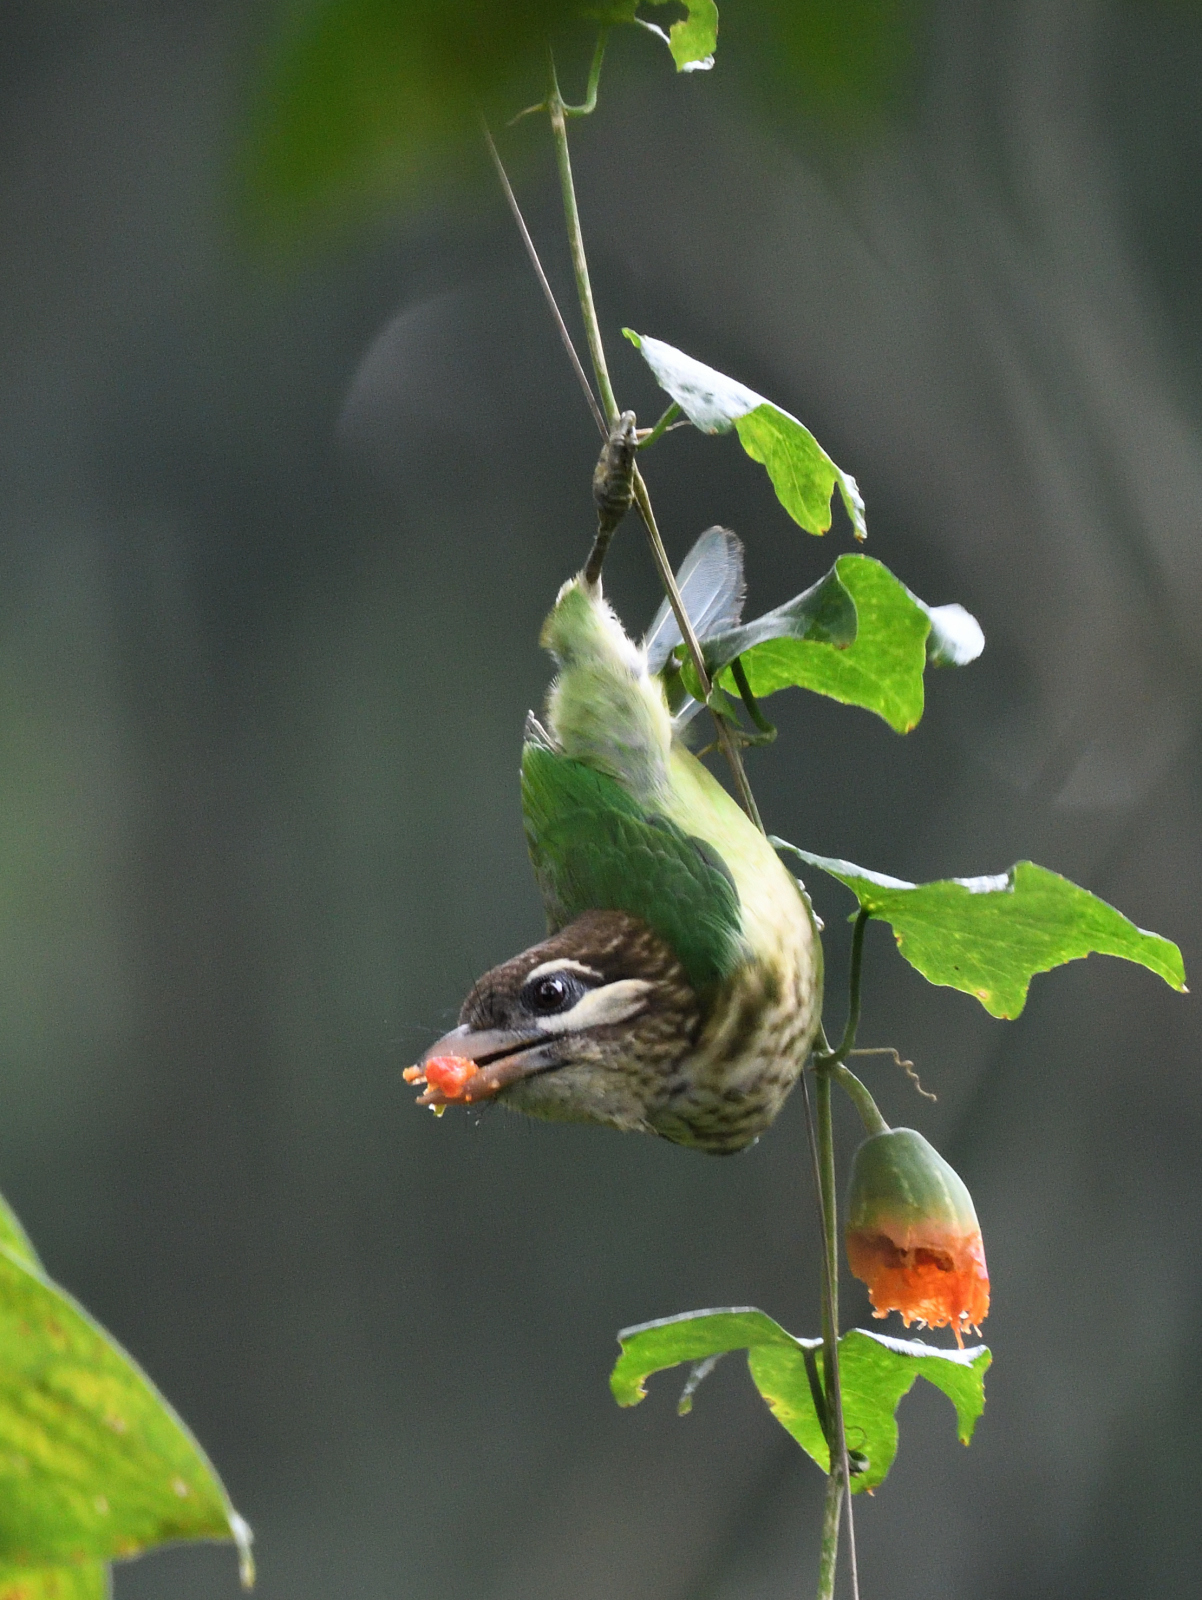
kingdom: Animalia
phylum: Chordata
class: Aves
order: Piciformes
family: Megalaimidae
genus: Psilopogon
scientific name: Psilopogon viridis
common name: White-cheeked barbet
